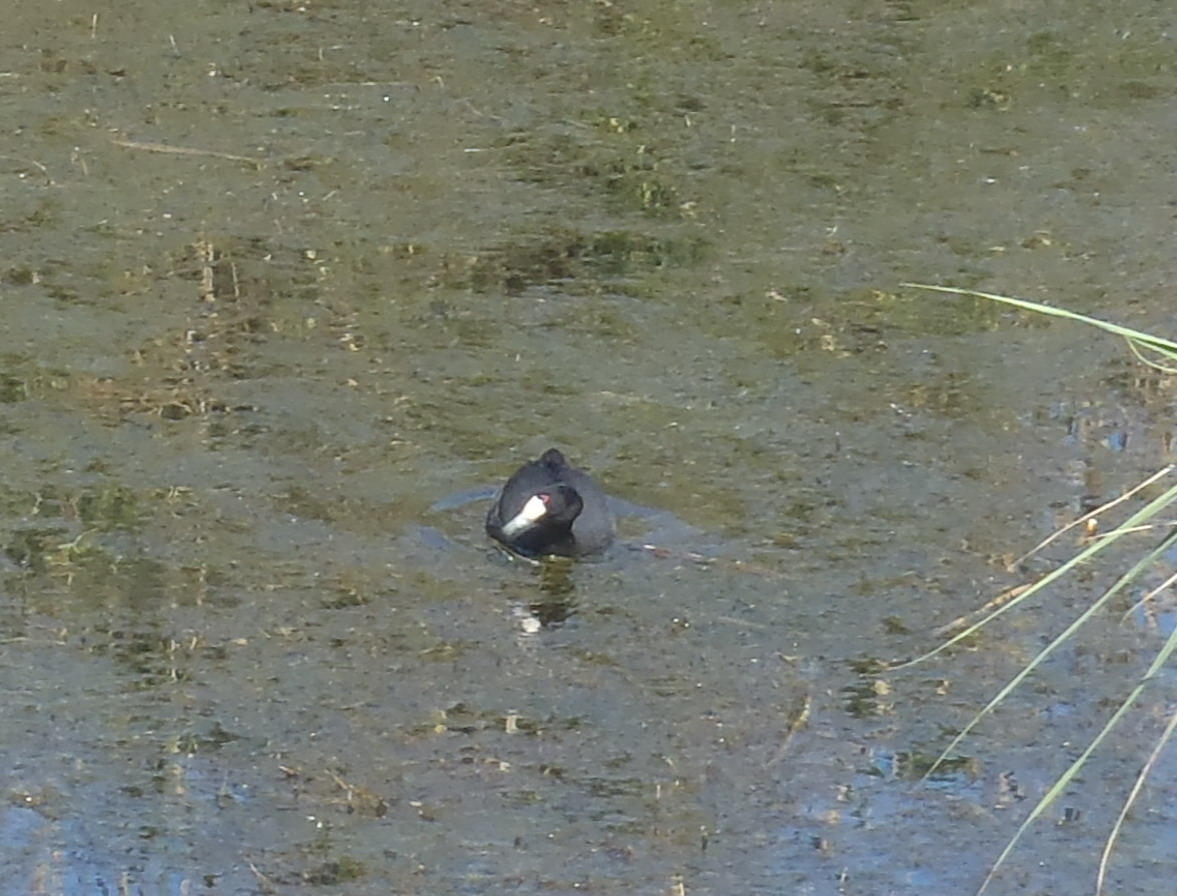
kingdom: Animalia
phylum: Chordata
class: Aves
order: Gruiformes
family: Rallidae
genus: Fulica
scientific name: Fulica cristata
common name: Red-knobbed coot
